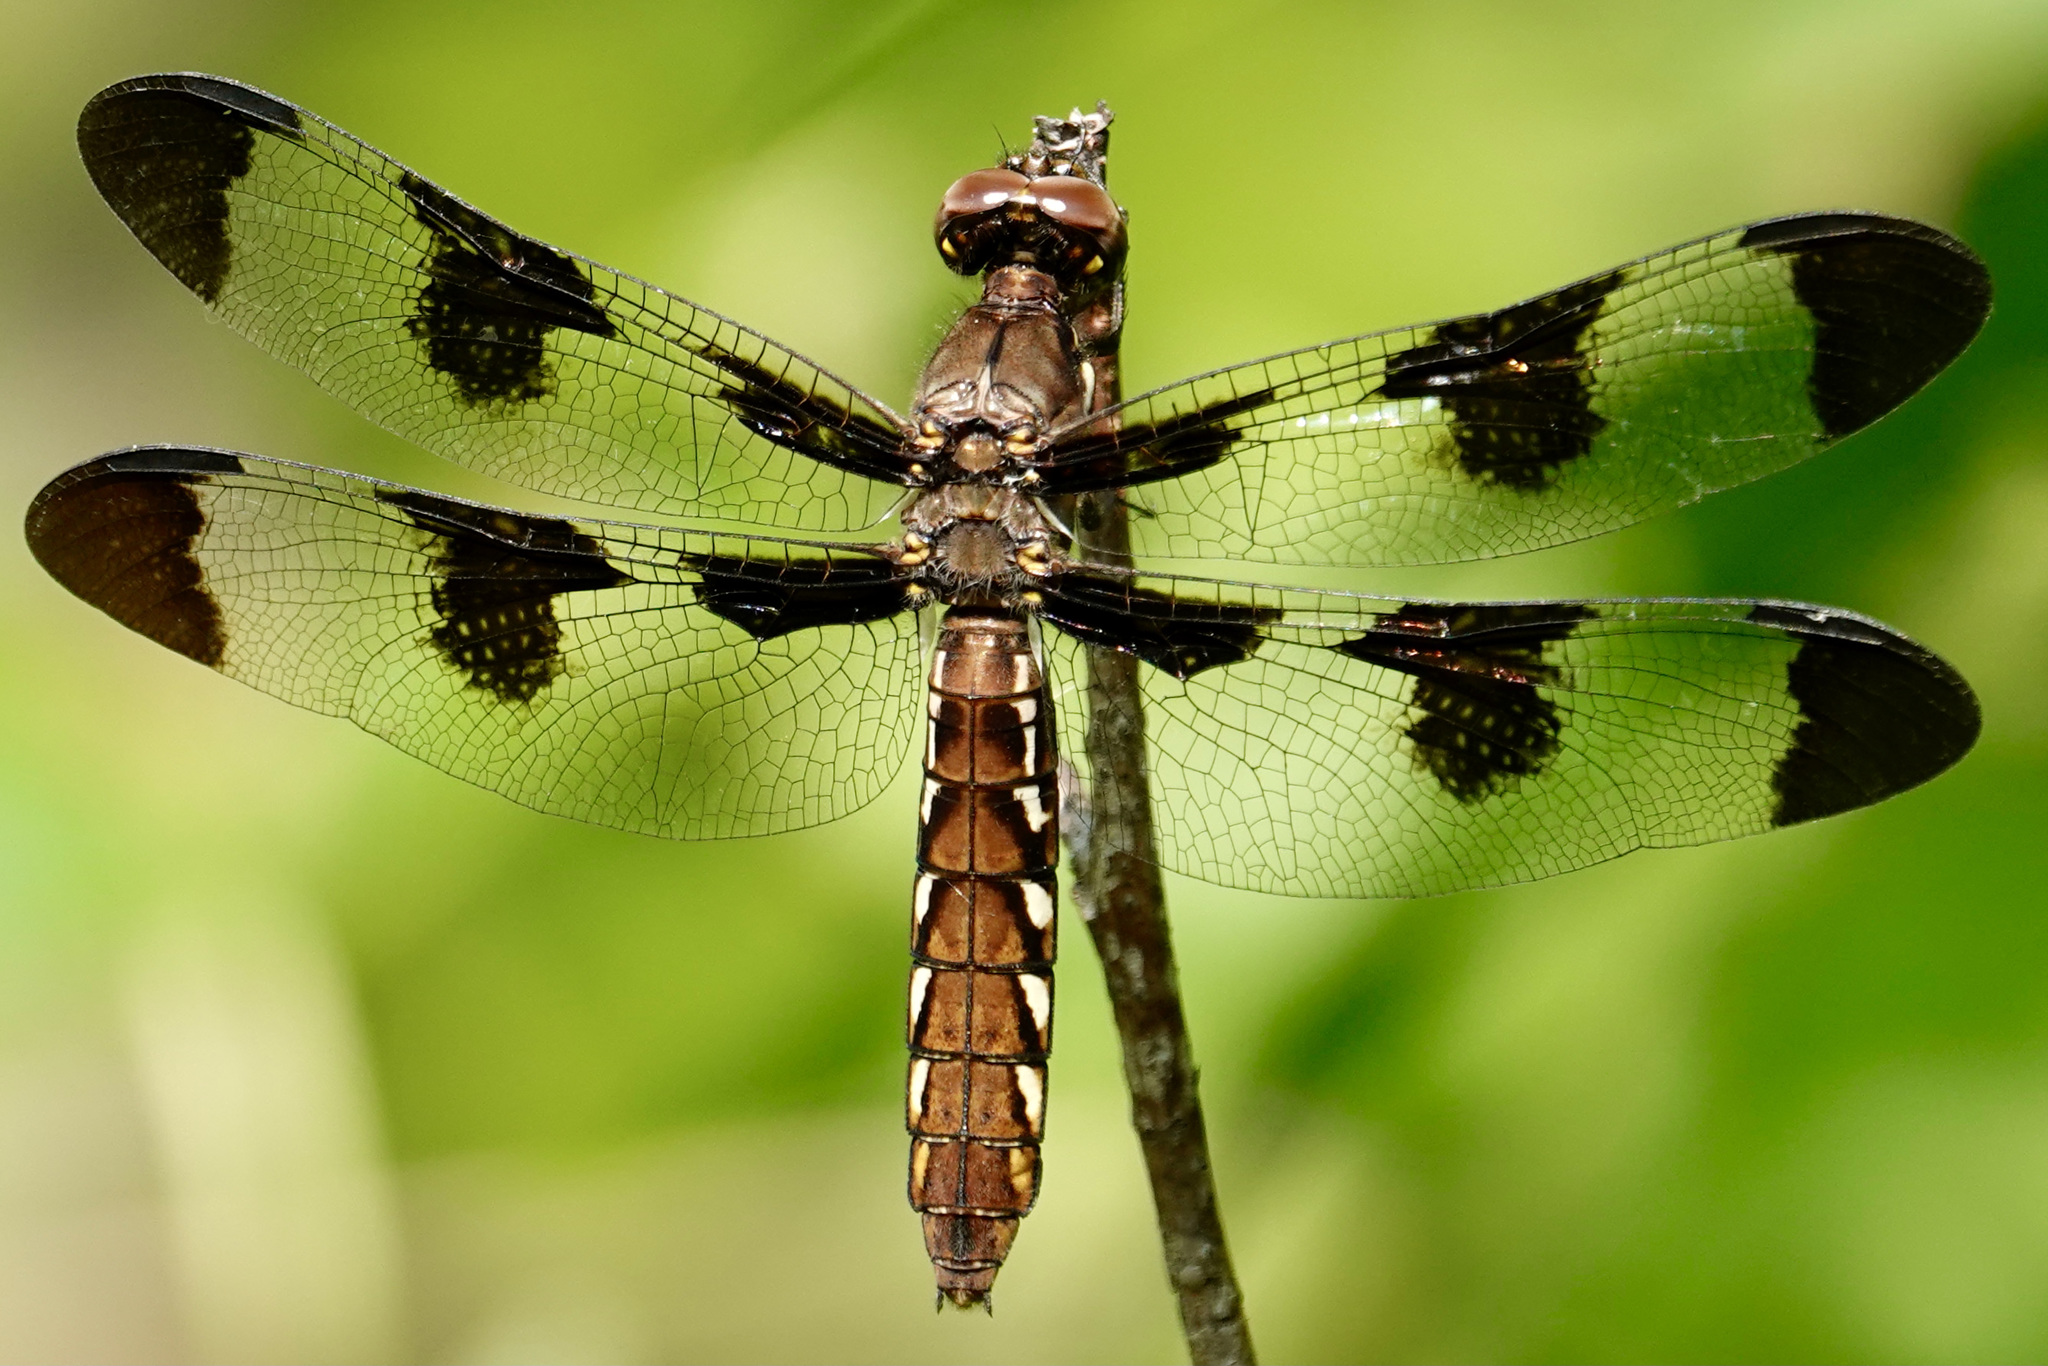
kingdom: Animalia
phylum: Arthropoda
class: Insecta
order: Odonata
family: Libellulidae
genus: Plathemis
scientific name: Plathemis lydia
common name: Common whitetail
